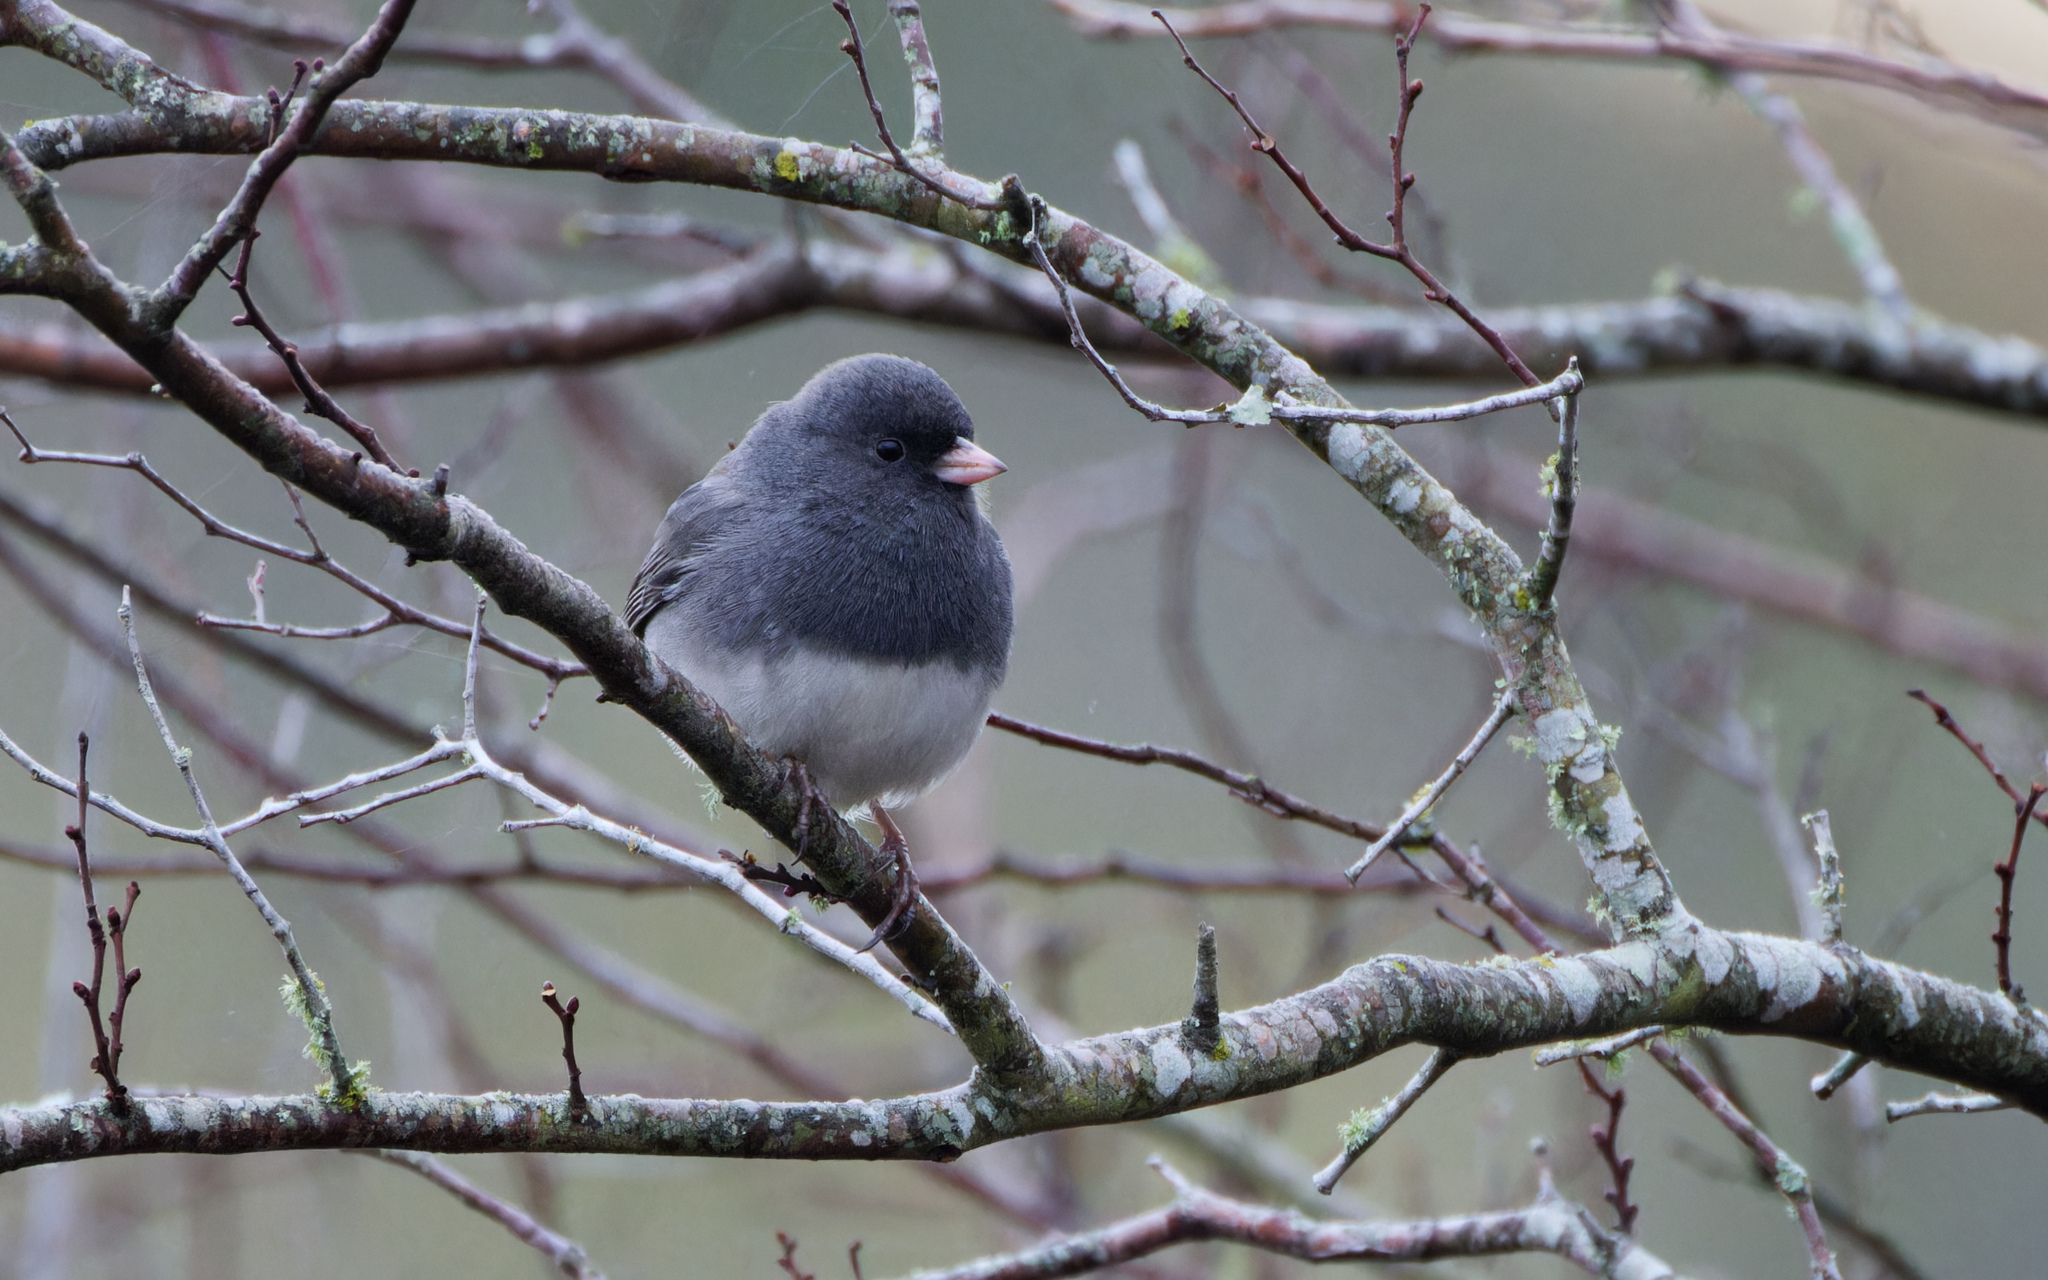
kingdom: Animalia
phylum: Chordata
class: Aves
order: Passeriformes
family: Passerellidae
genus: Junco
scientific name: Junco hyemalis
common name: Dark-eyed junco
